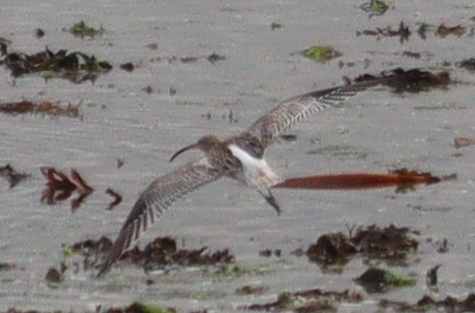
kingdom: Animalia
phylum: Chordata
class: Aves
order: Charadriiformes
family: Scolopacidae
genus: Numenius
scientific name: Numenius arquata
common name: Eurasian curlew
